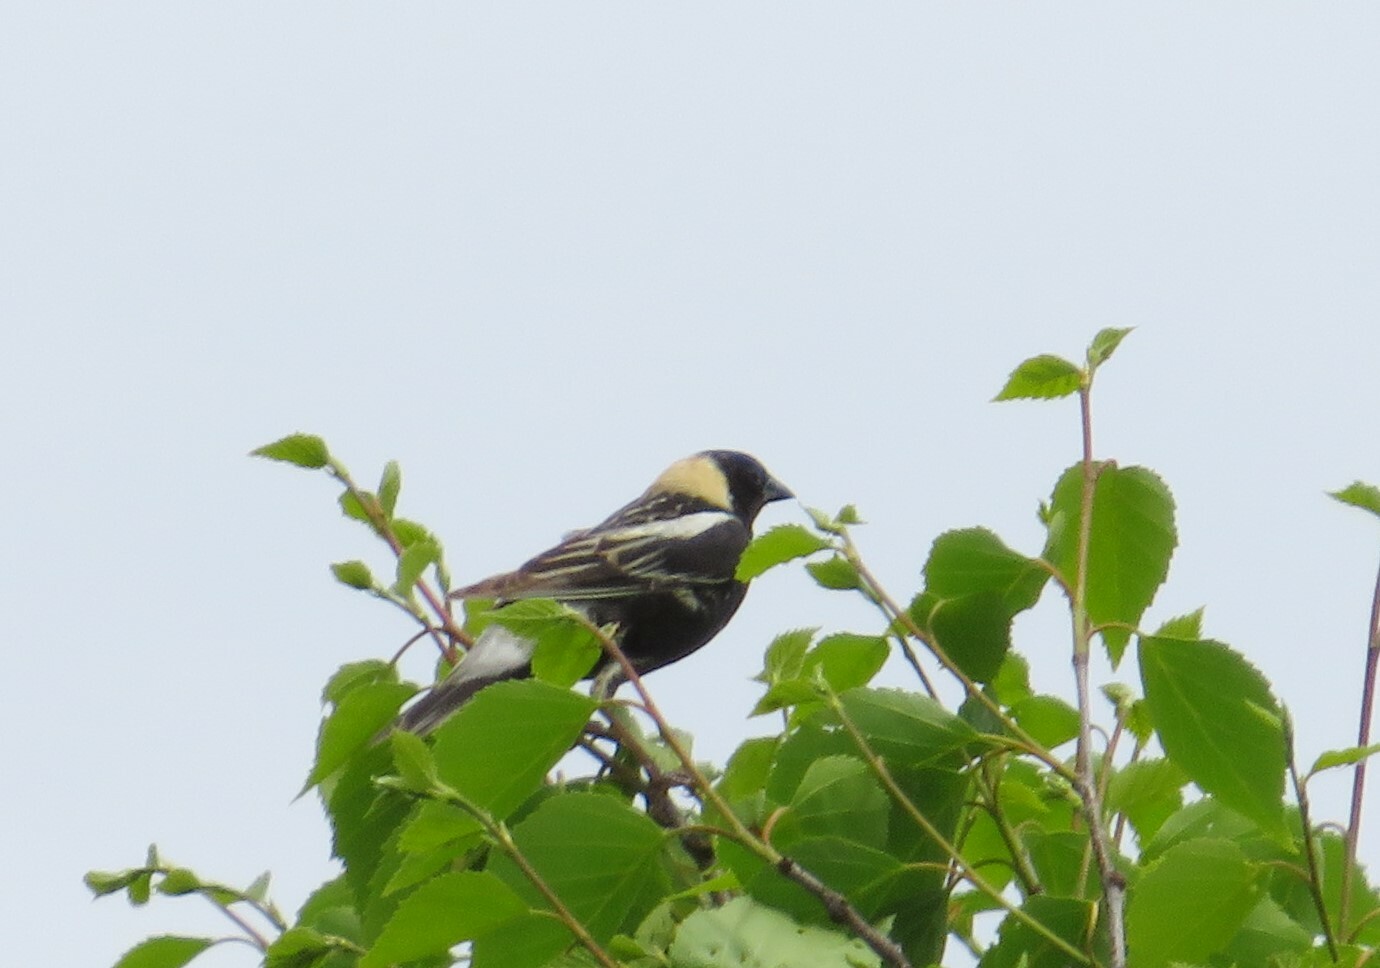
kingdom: Animalia
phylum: Chordata
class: Aves
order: Passeriformes
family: Icteridae
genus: Dolichonyx
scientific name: Dolichonyx oryzivorus
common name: Bobolink
